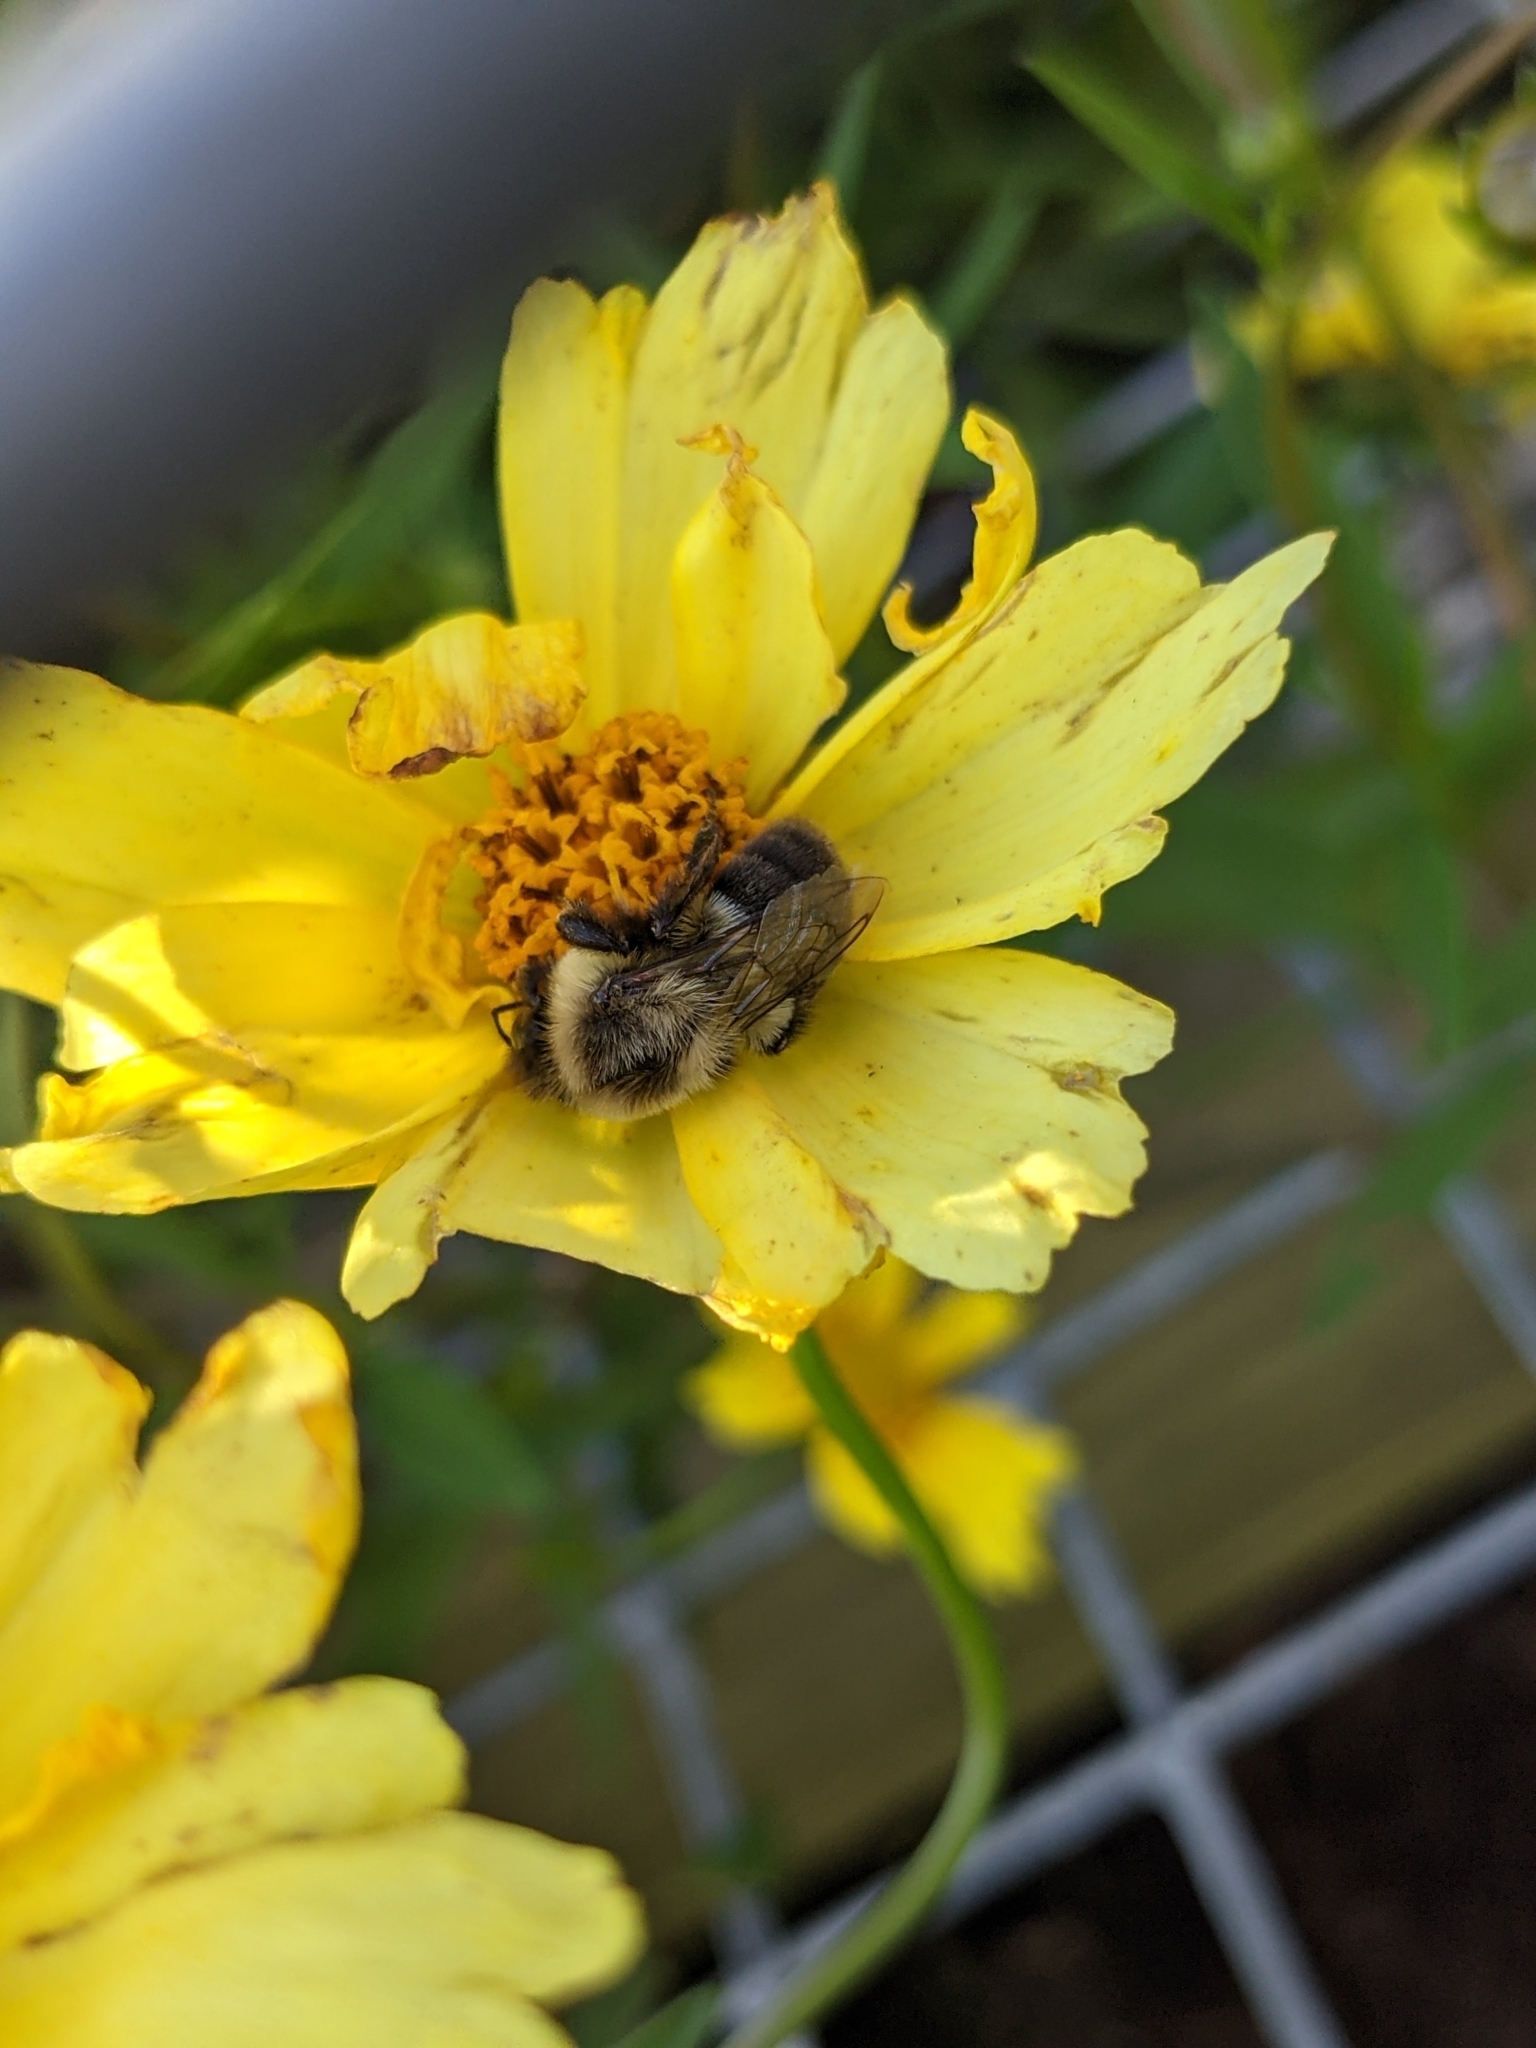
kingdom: Animalia
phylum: Arthropoda
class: Insecta
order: Hymenoptera
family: Apidae
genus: Bombus
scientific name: Bombus impatiens
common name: Common eastern bumble bee
